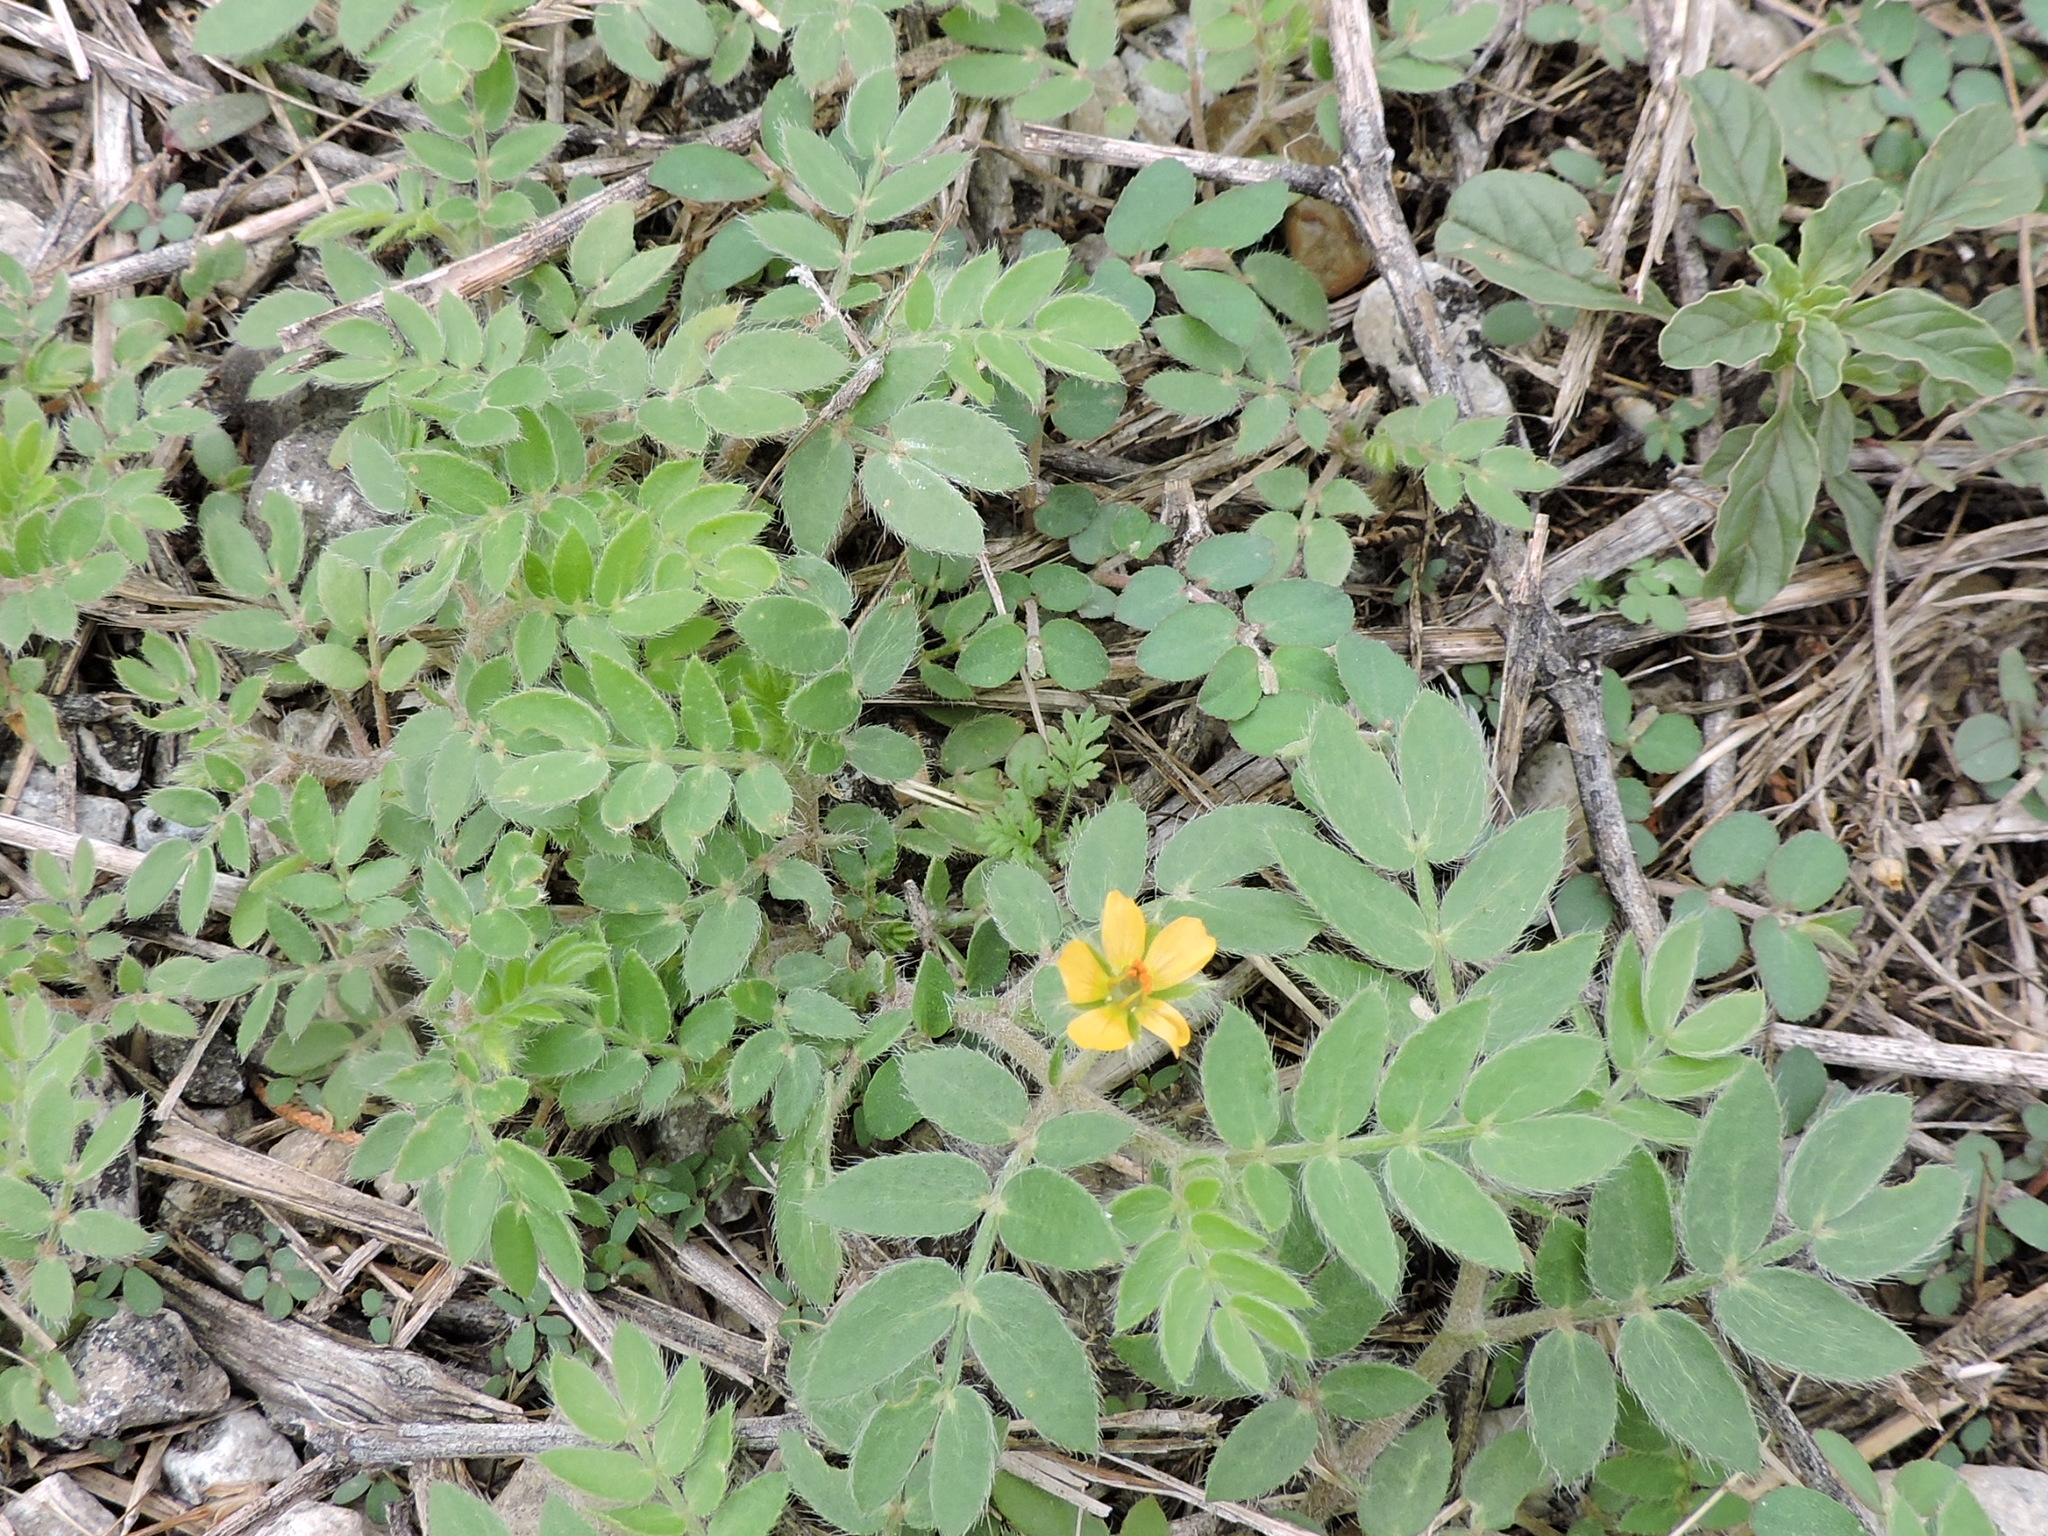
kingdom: Plantae
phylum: Tracheophyta
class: Magnoliopsida
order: Zygophyllales
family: Zygophyllaceae
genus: Kallstroemia
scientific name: Kallstroemia parviflora
